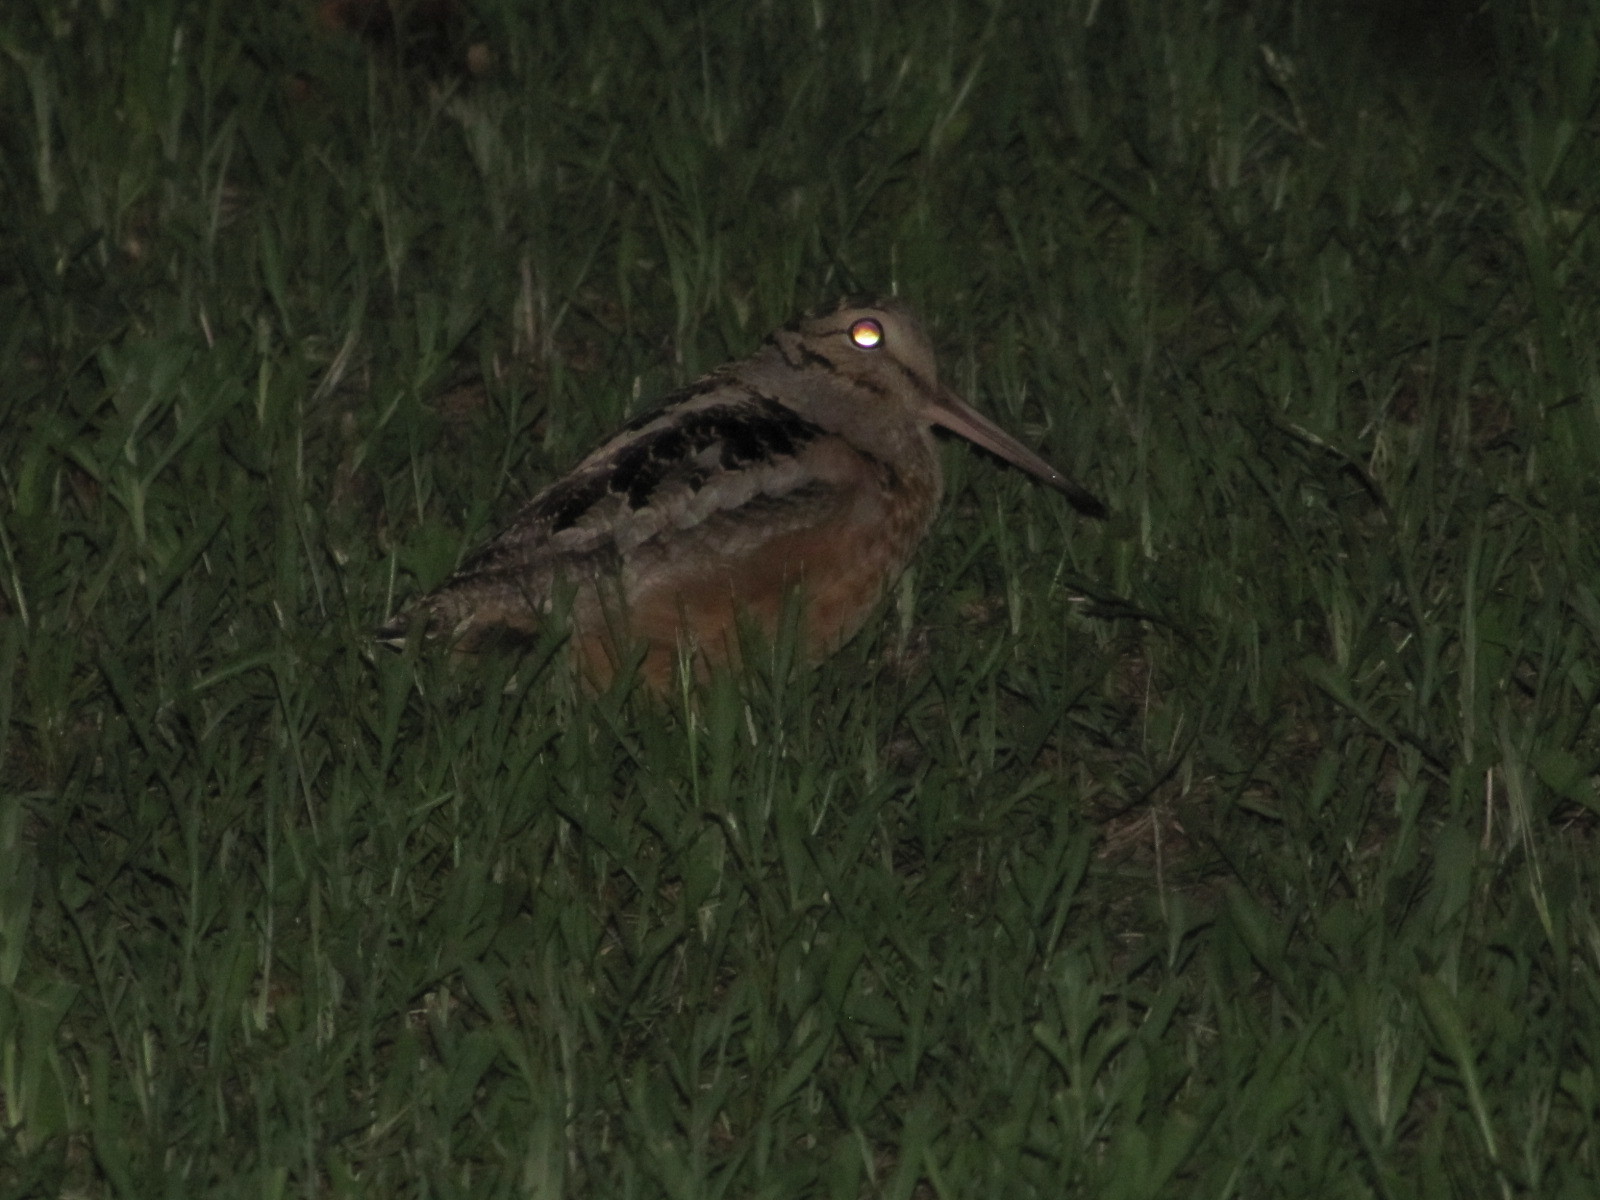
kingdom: Animalia
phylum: Chordata
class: Aves
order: Charadriiformes
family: Scolopacidae
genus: Scolopax
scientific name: Scolopax minor
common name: American woodcock
